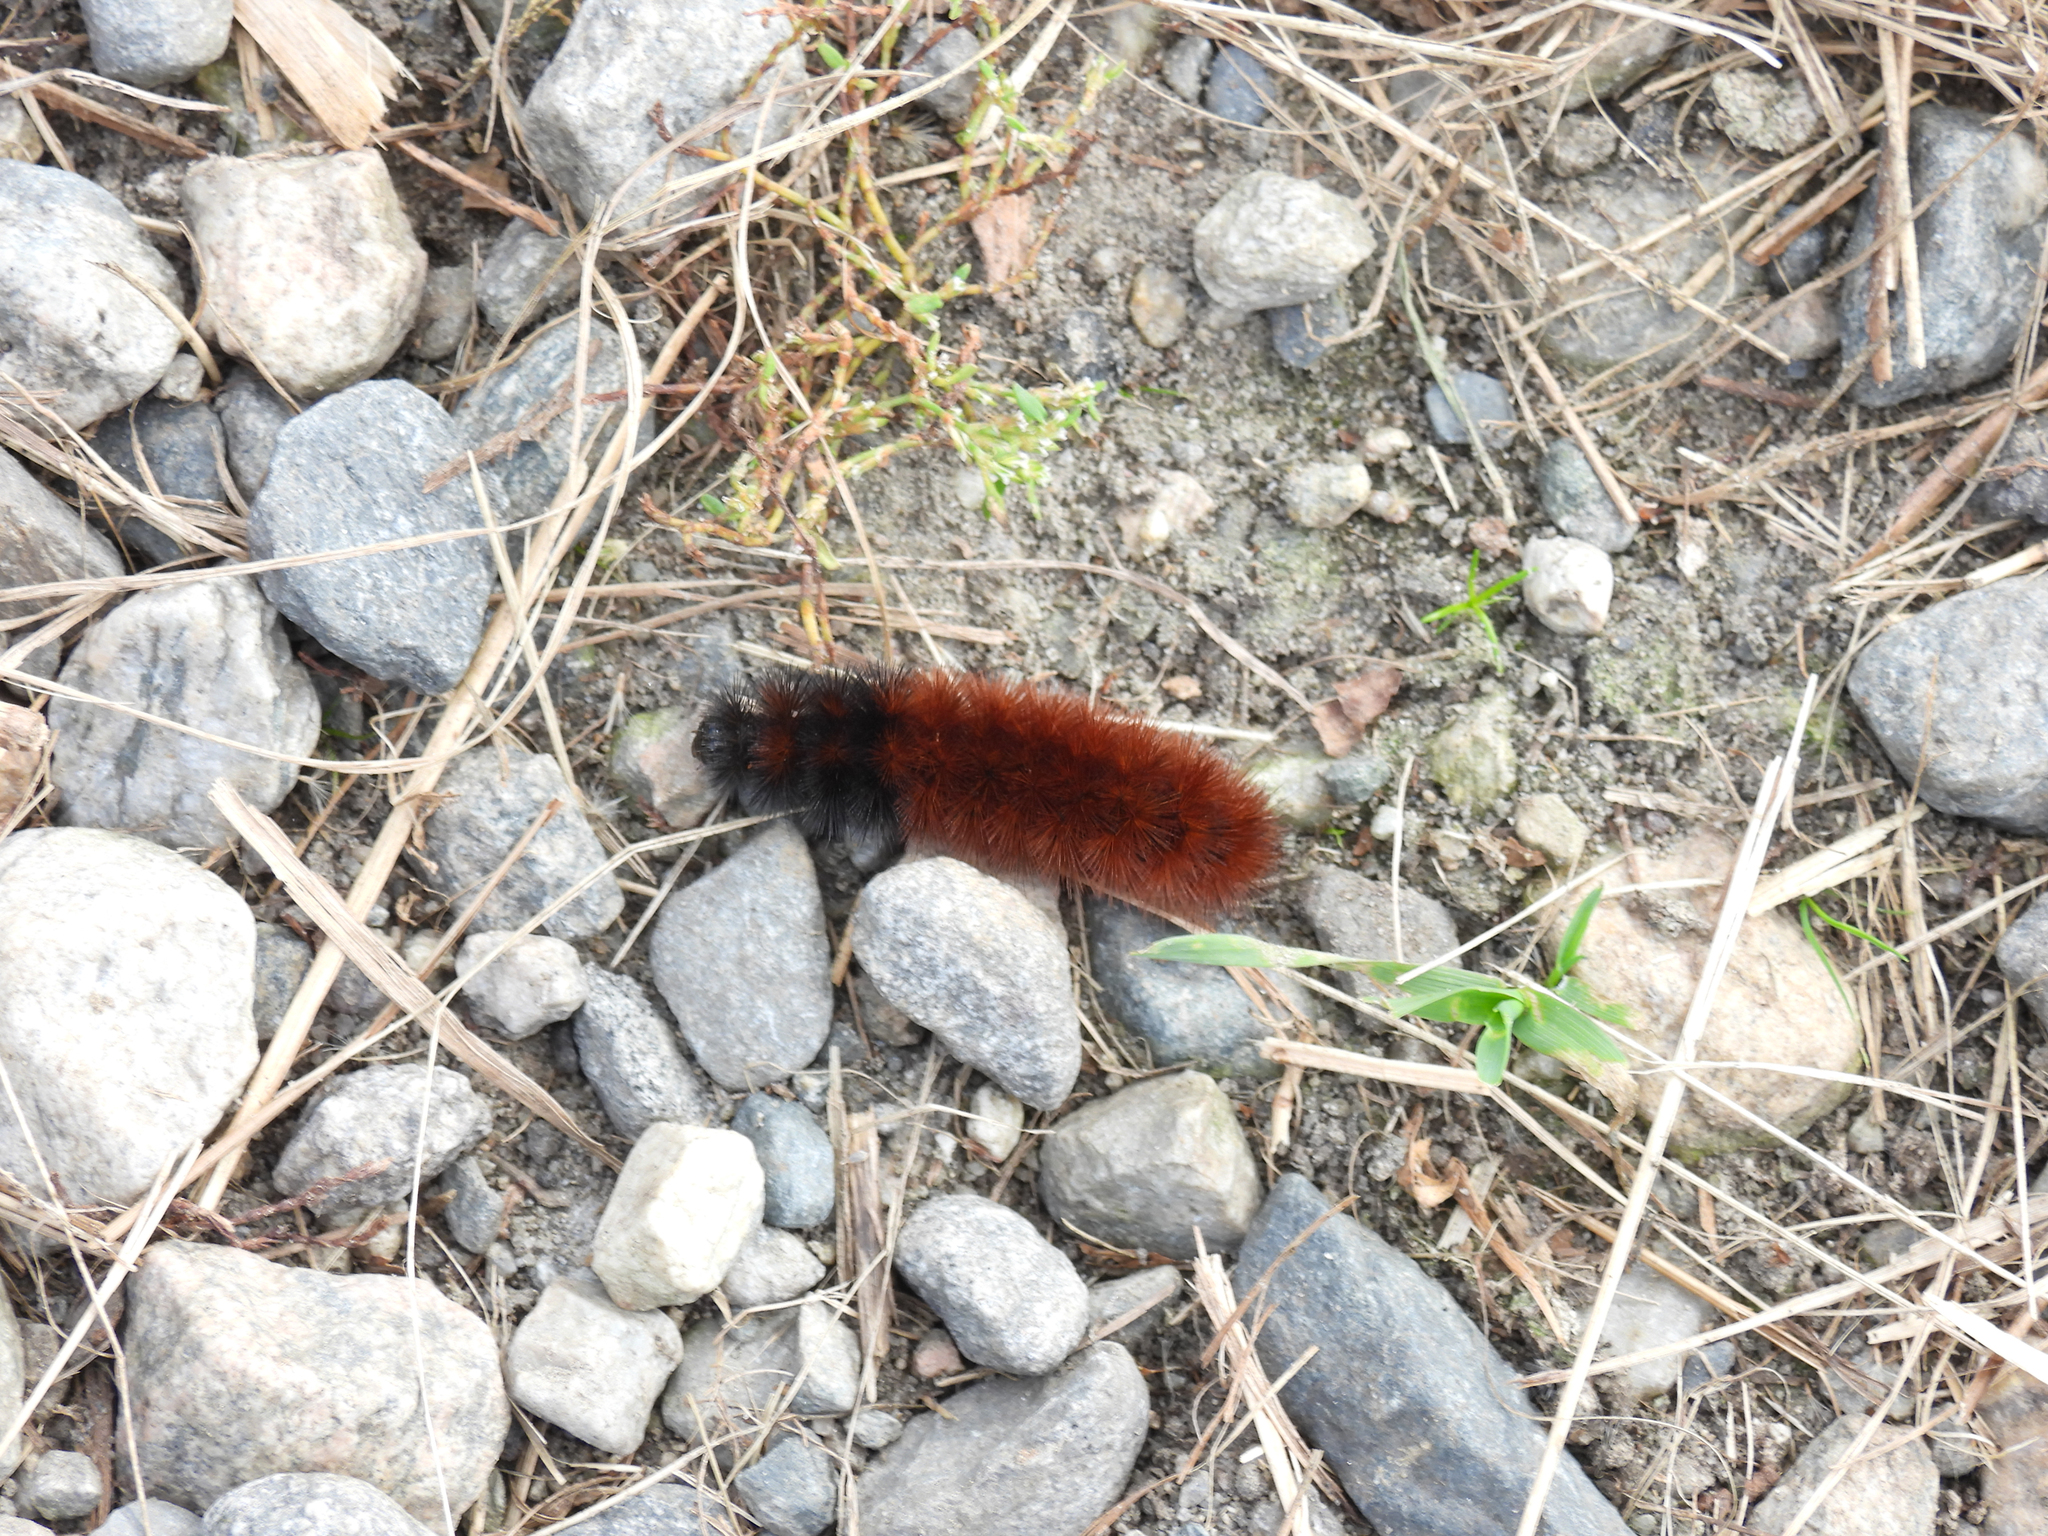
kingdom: Animalia
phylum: Arthropoda
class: Insecta
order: Lepidoptera
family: Erebidae
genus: Pyrrharctia
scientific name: Pyrrharctia isabella
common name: Isabella tiger moth
